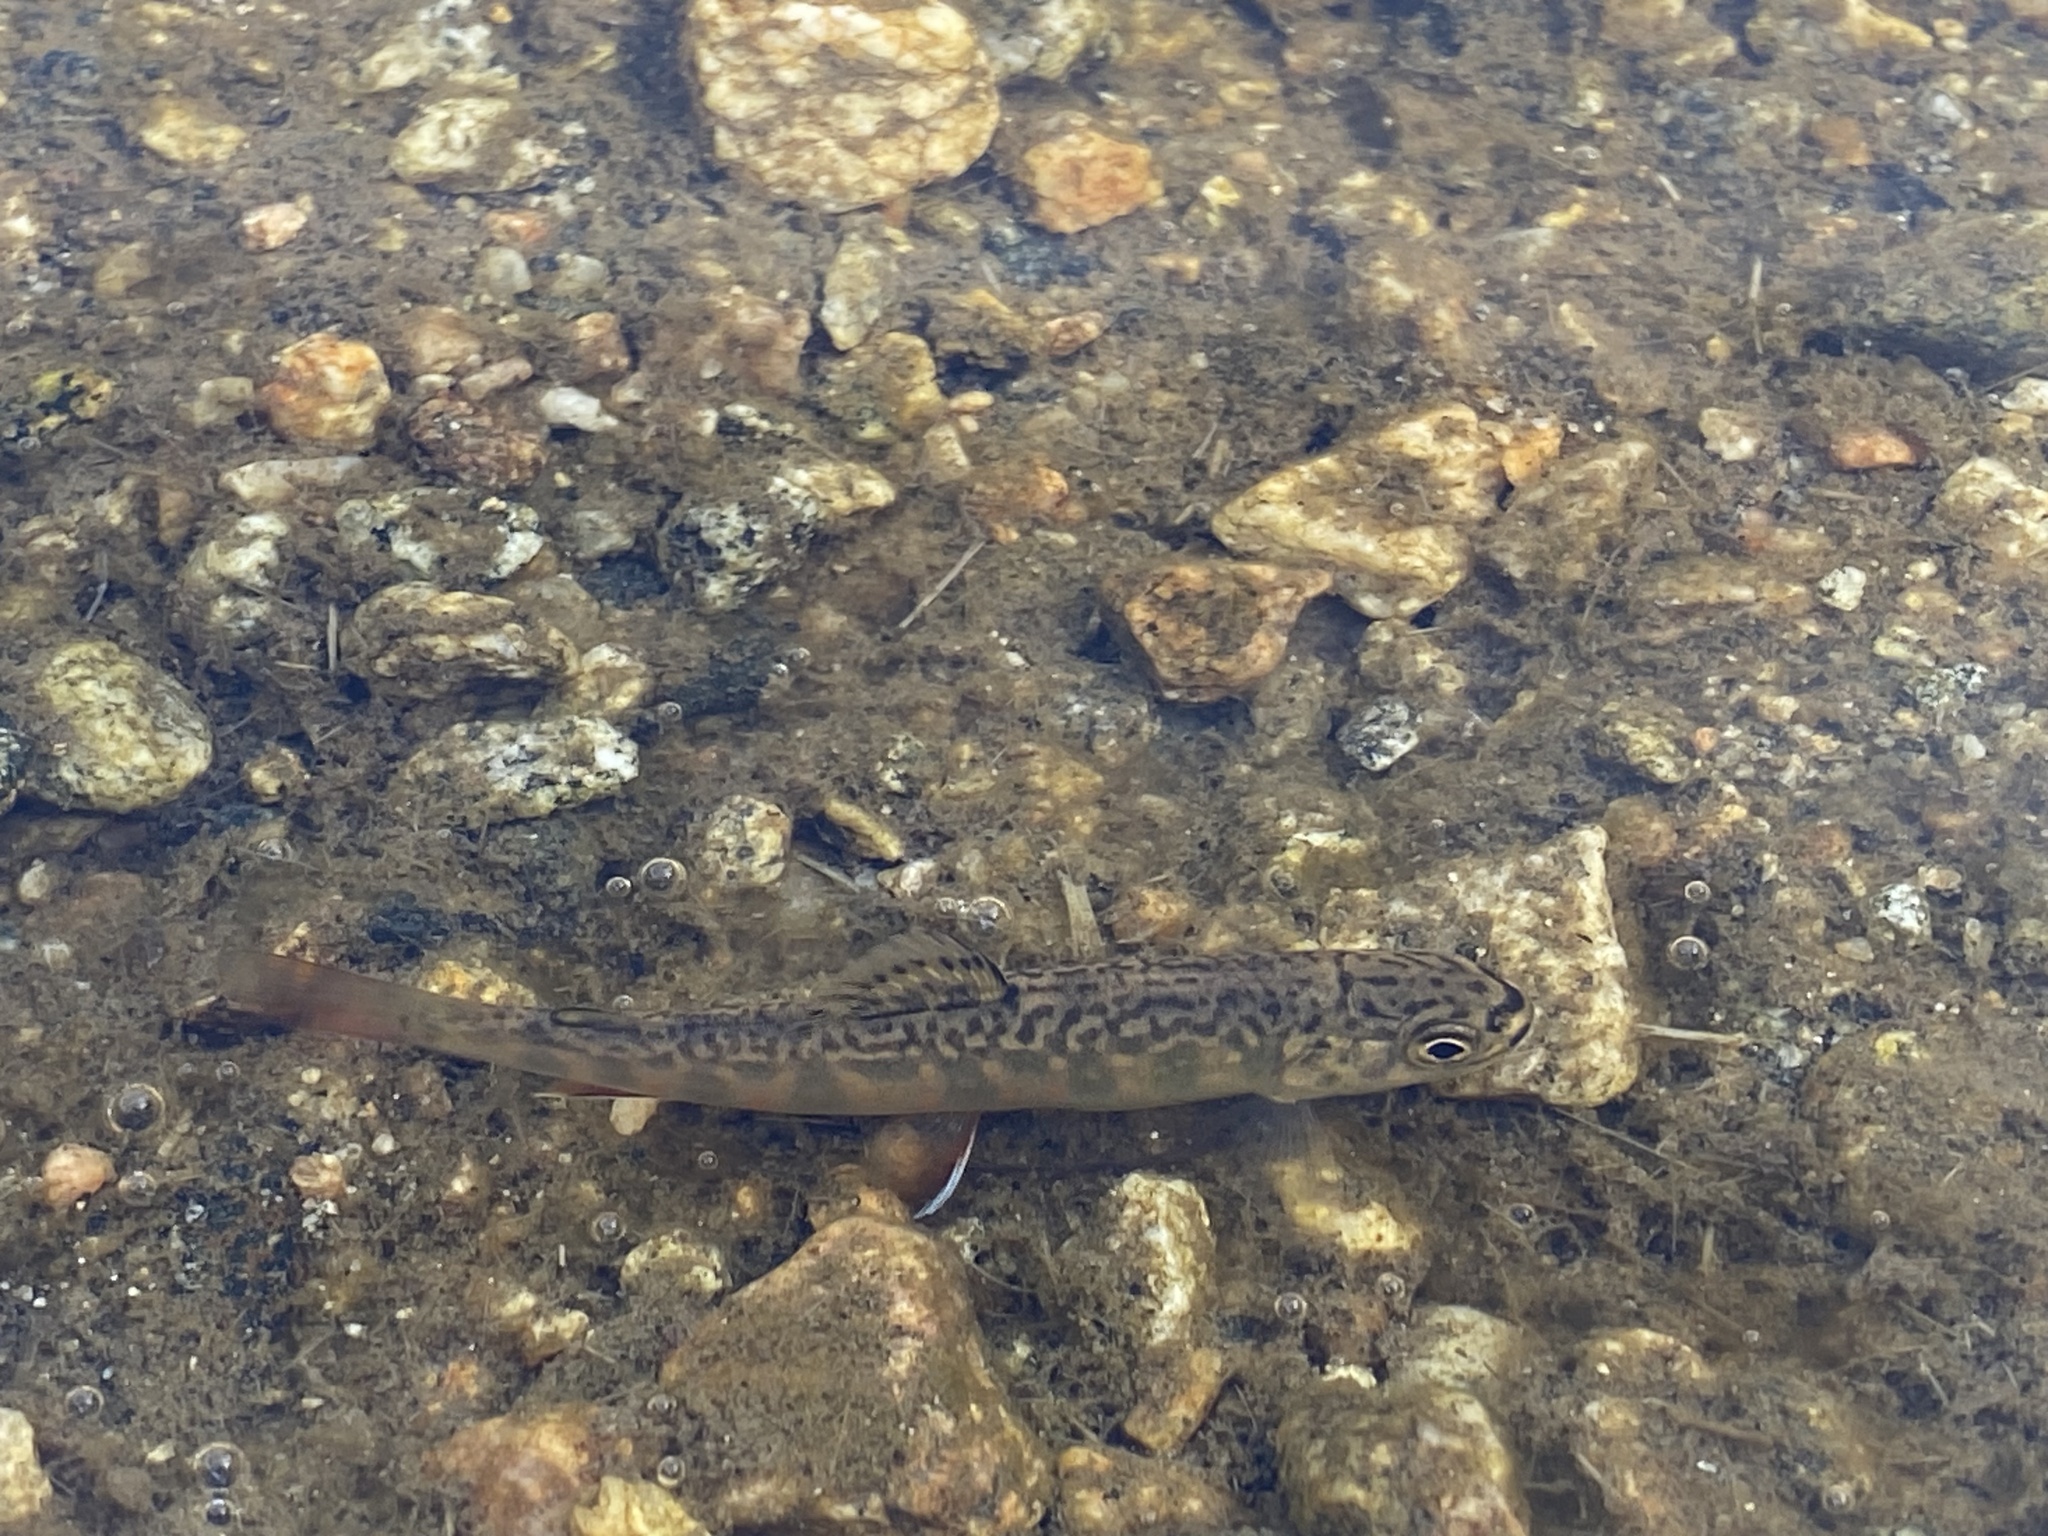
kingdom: Animalia
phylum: Chordata
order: Salmoniformes
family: Salmonidae
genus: Salvelinus
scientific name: Salvelinus fontinalis
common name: Brook trout
